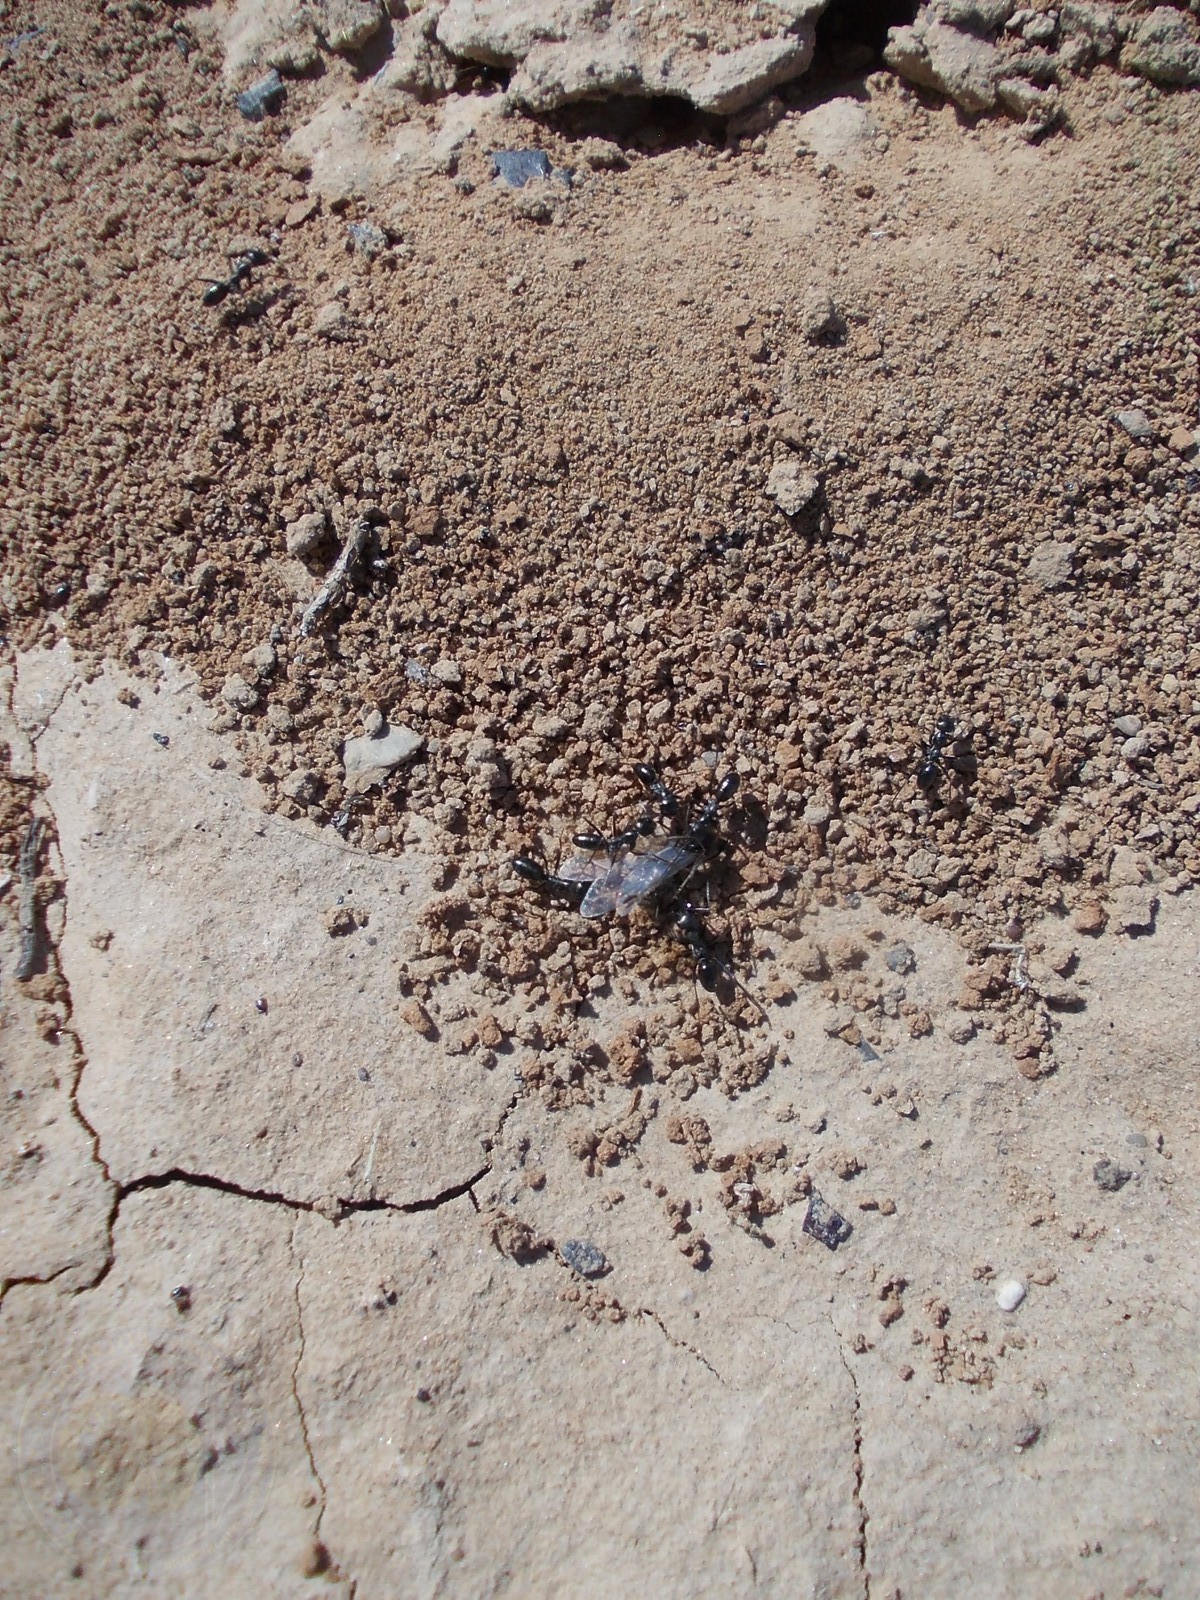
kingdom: Animalia
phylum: Arthropoda
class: Insecta
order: Hymenoptera
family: Formicidae
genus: Cataglyphis
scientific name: Cataglyphis aenescens
